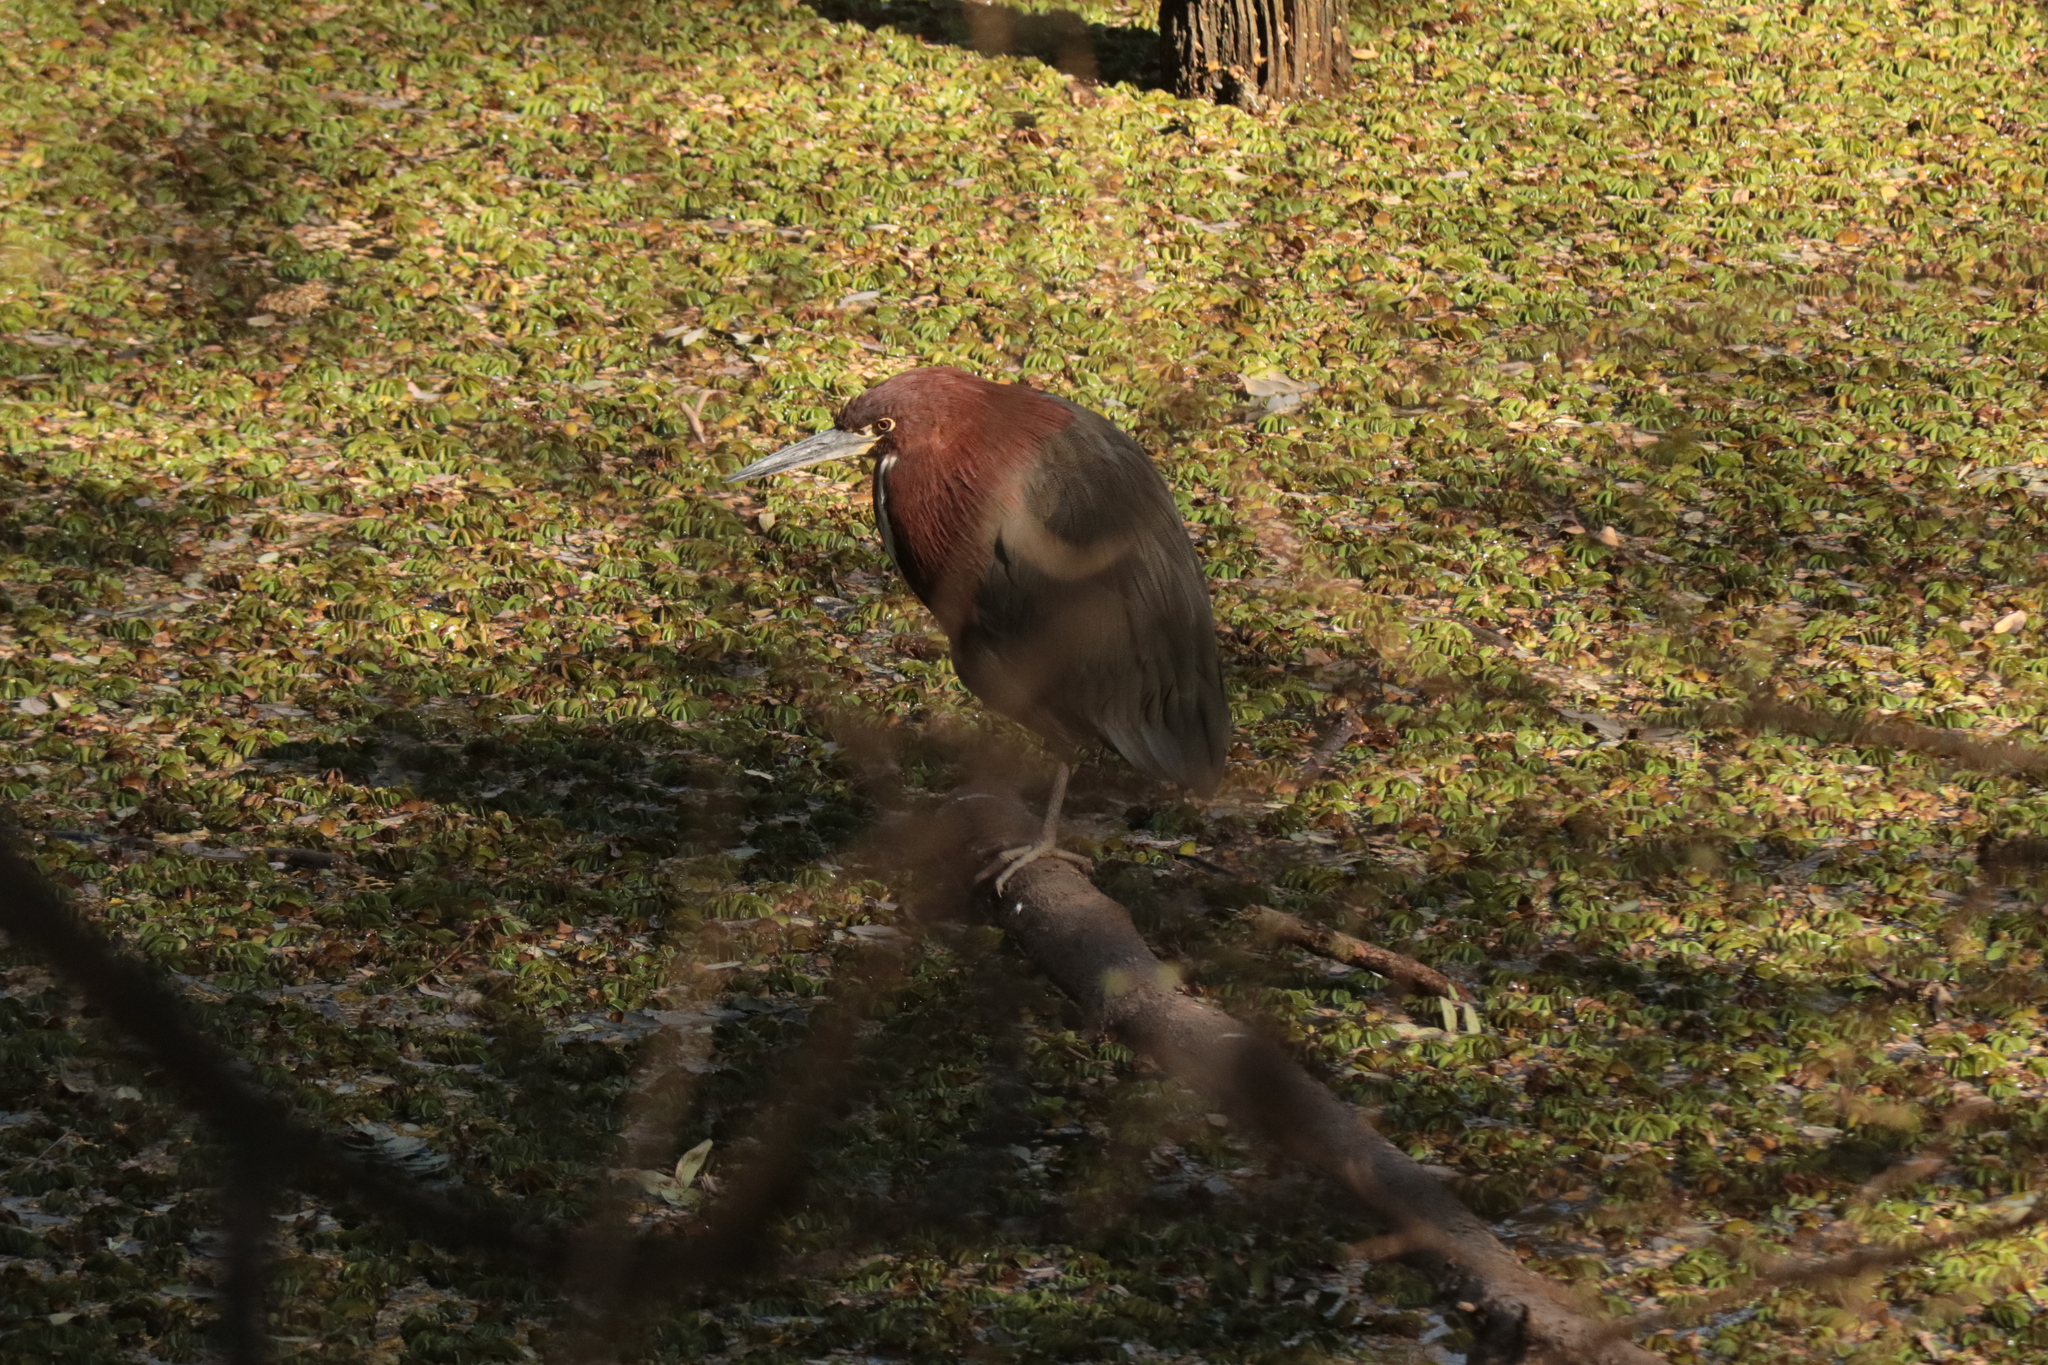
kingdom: Animalia
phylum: Chordata
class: Aves
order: Pelecaniformes
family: Ardeidae
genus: Tigrisoma
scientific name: Tigrisoma lineatum
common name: Rufescent tiger-heron
